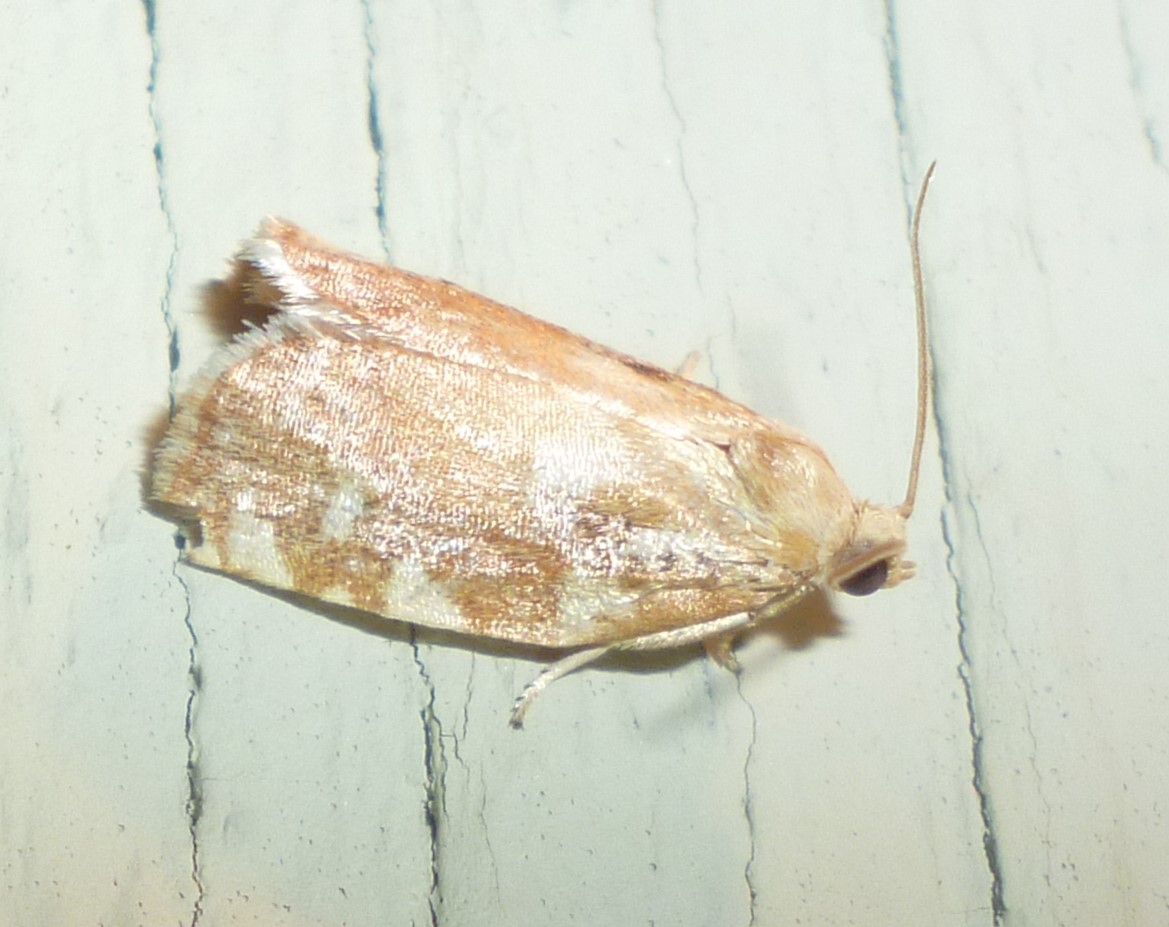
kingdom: Animalia
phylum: Arthropoda
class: Insecta
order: Lepidoptera
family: Tortricidae
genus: Archips
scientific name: Archips semiferanus
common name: Oak leafroller
